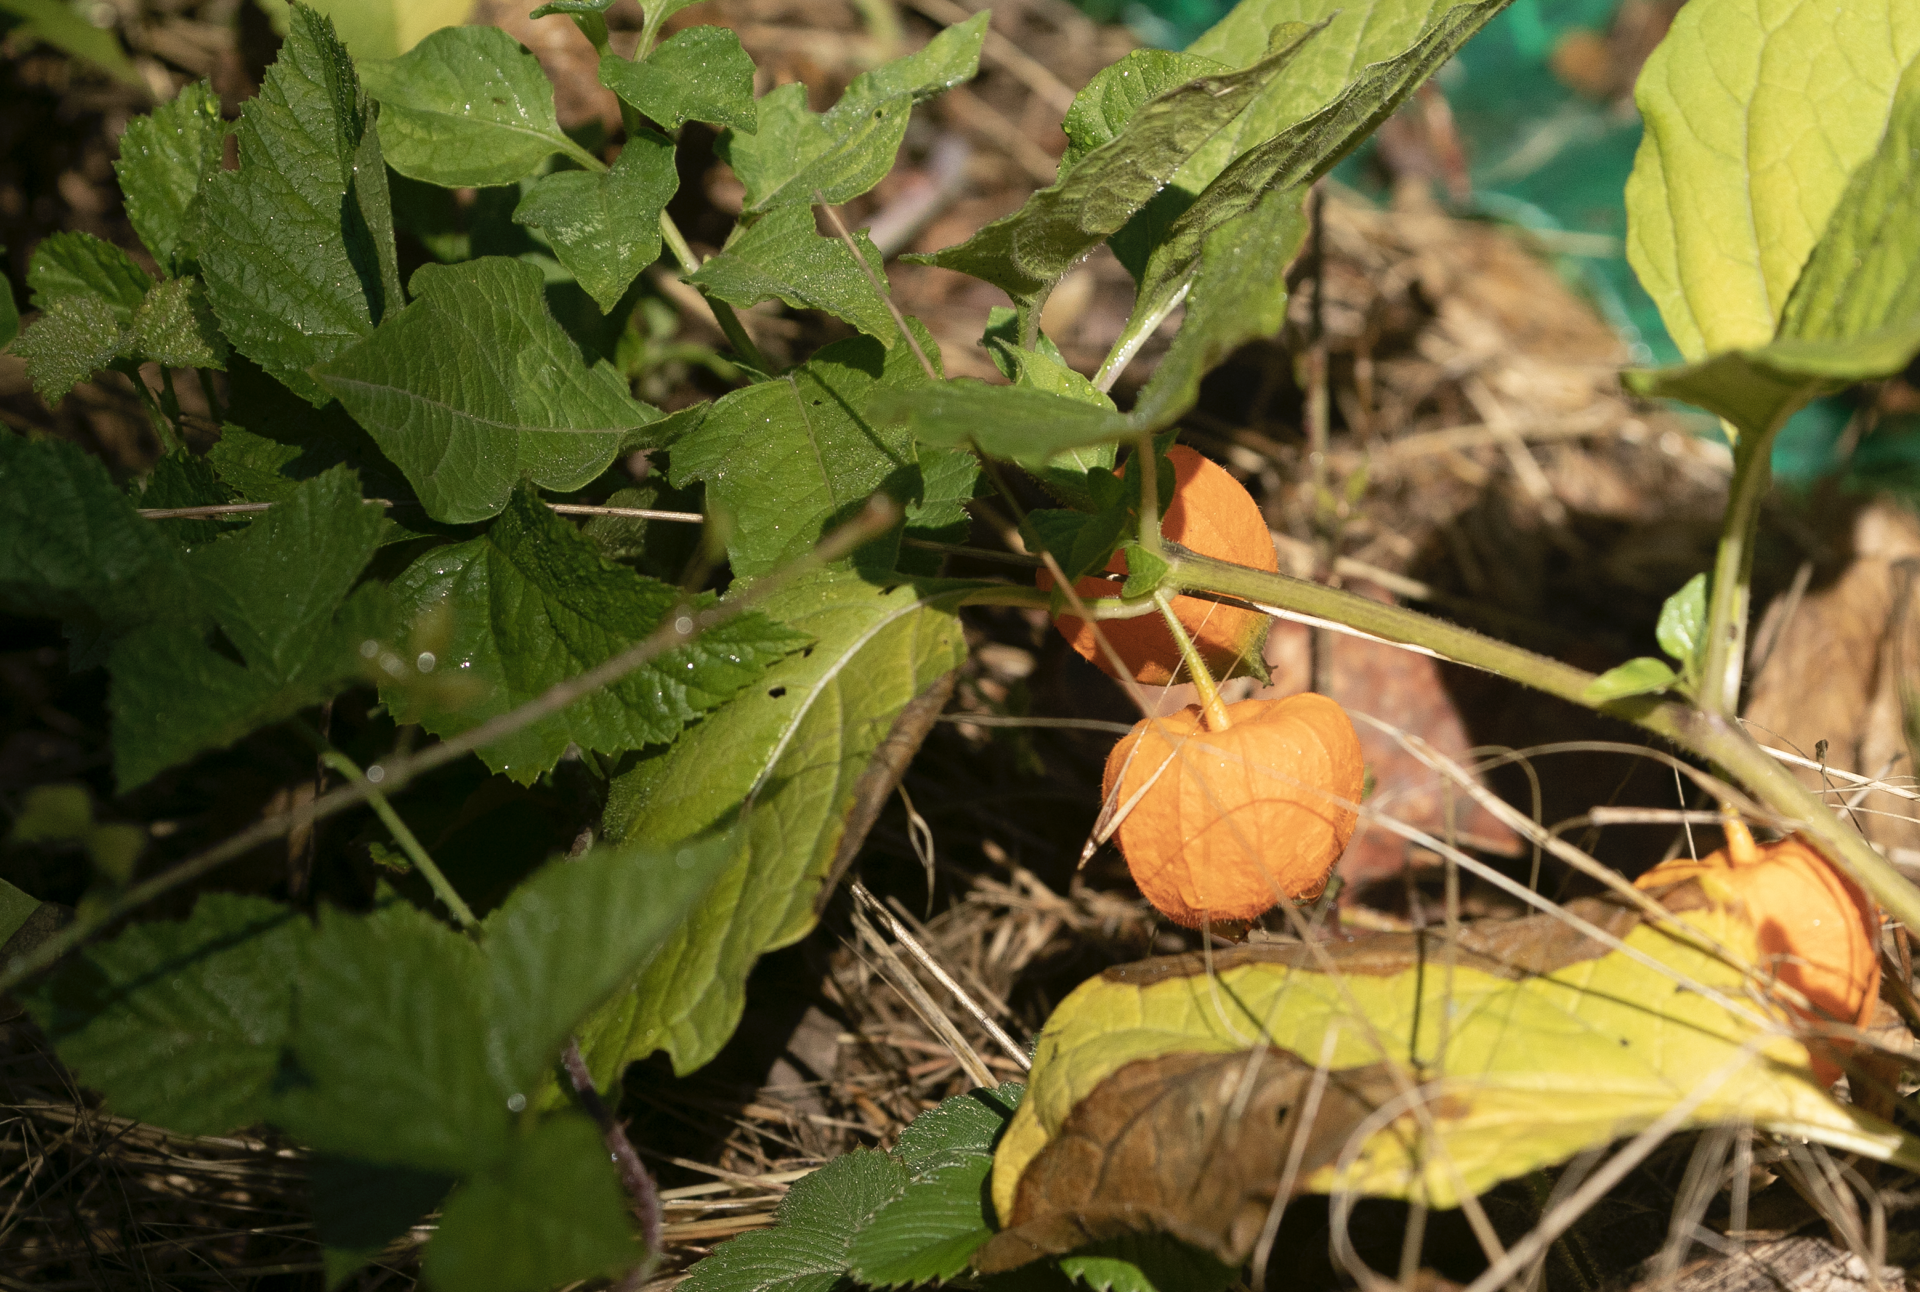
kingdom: Plantae
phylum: Tracheophyta
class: Magnoliopsida
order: Solanales
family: Solanaceae
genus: Alkekengi
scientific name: Alkekengi officinarum
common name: Japanese-lantern
